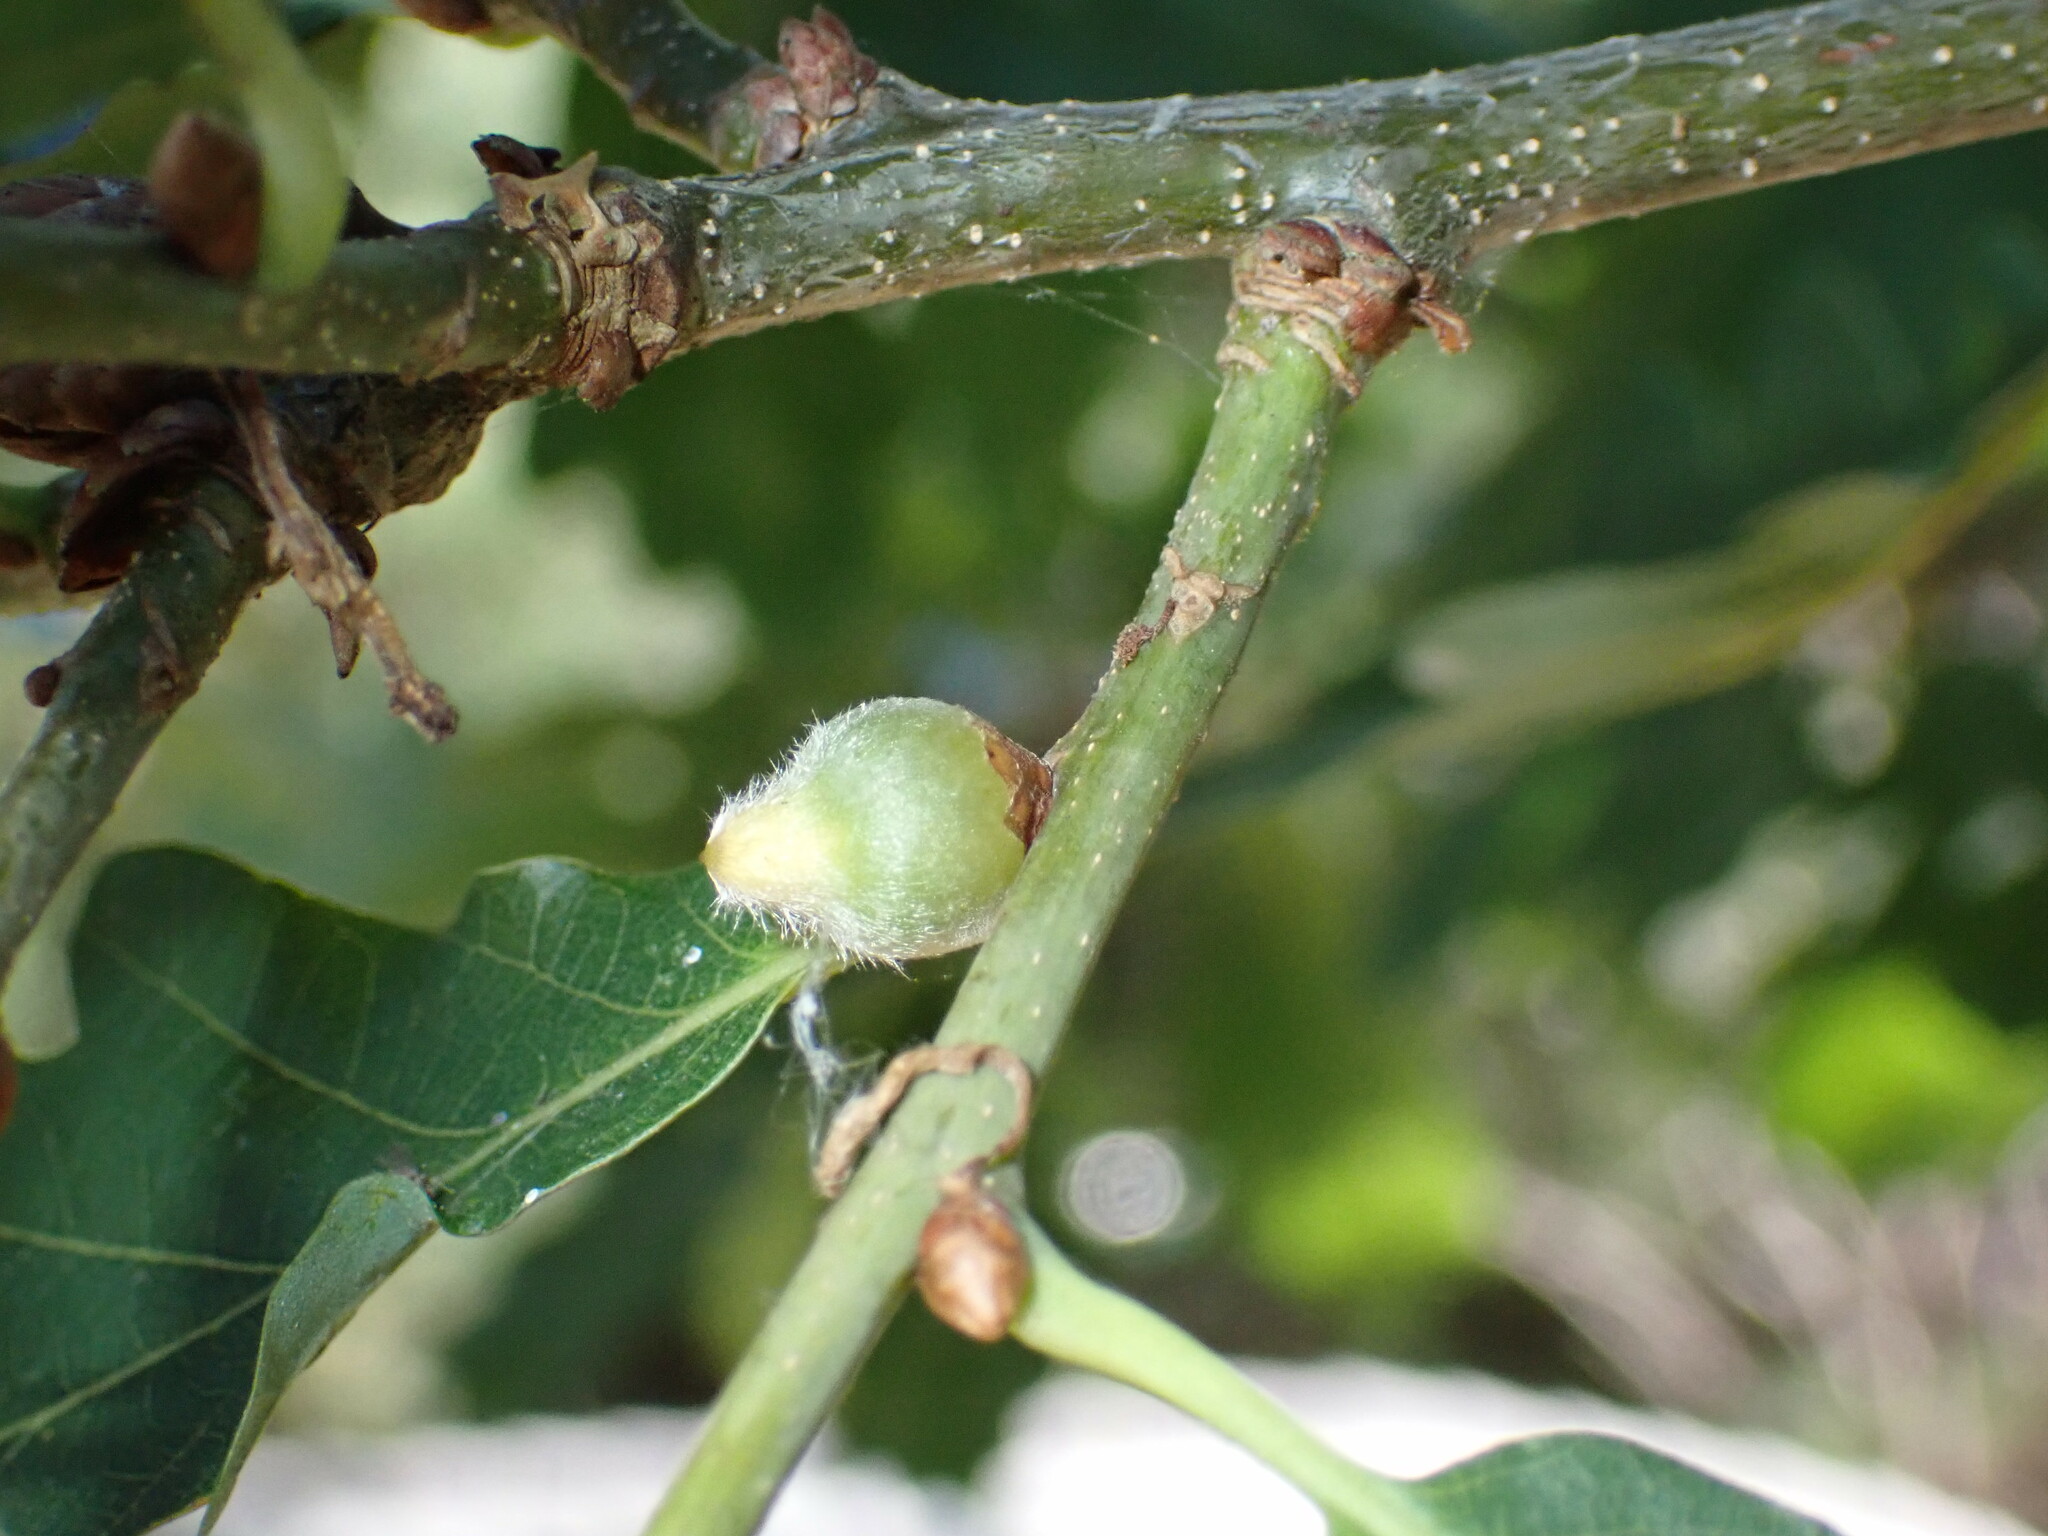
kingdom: Animalia
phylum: Arthropoda
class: Insecta
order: Hymenoptera
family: Cynipidae
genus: Andricus
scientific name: Andricus glandulae
